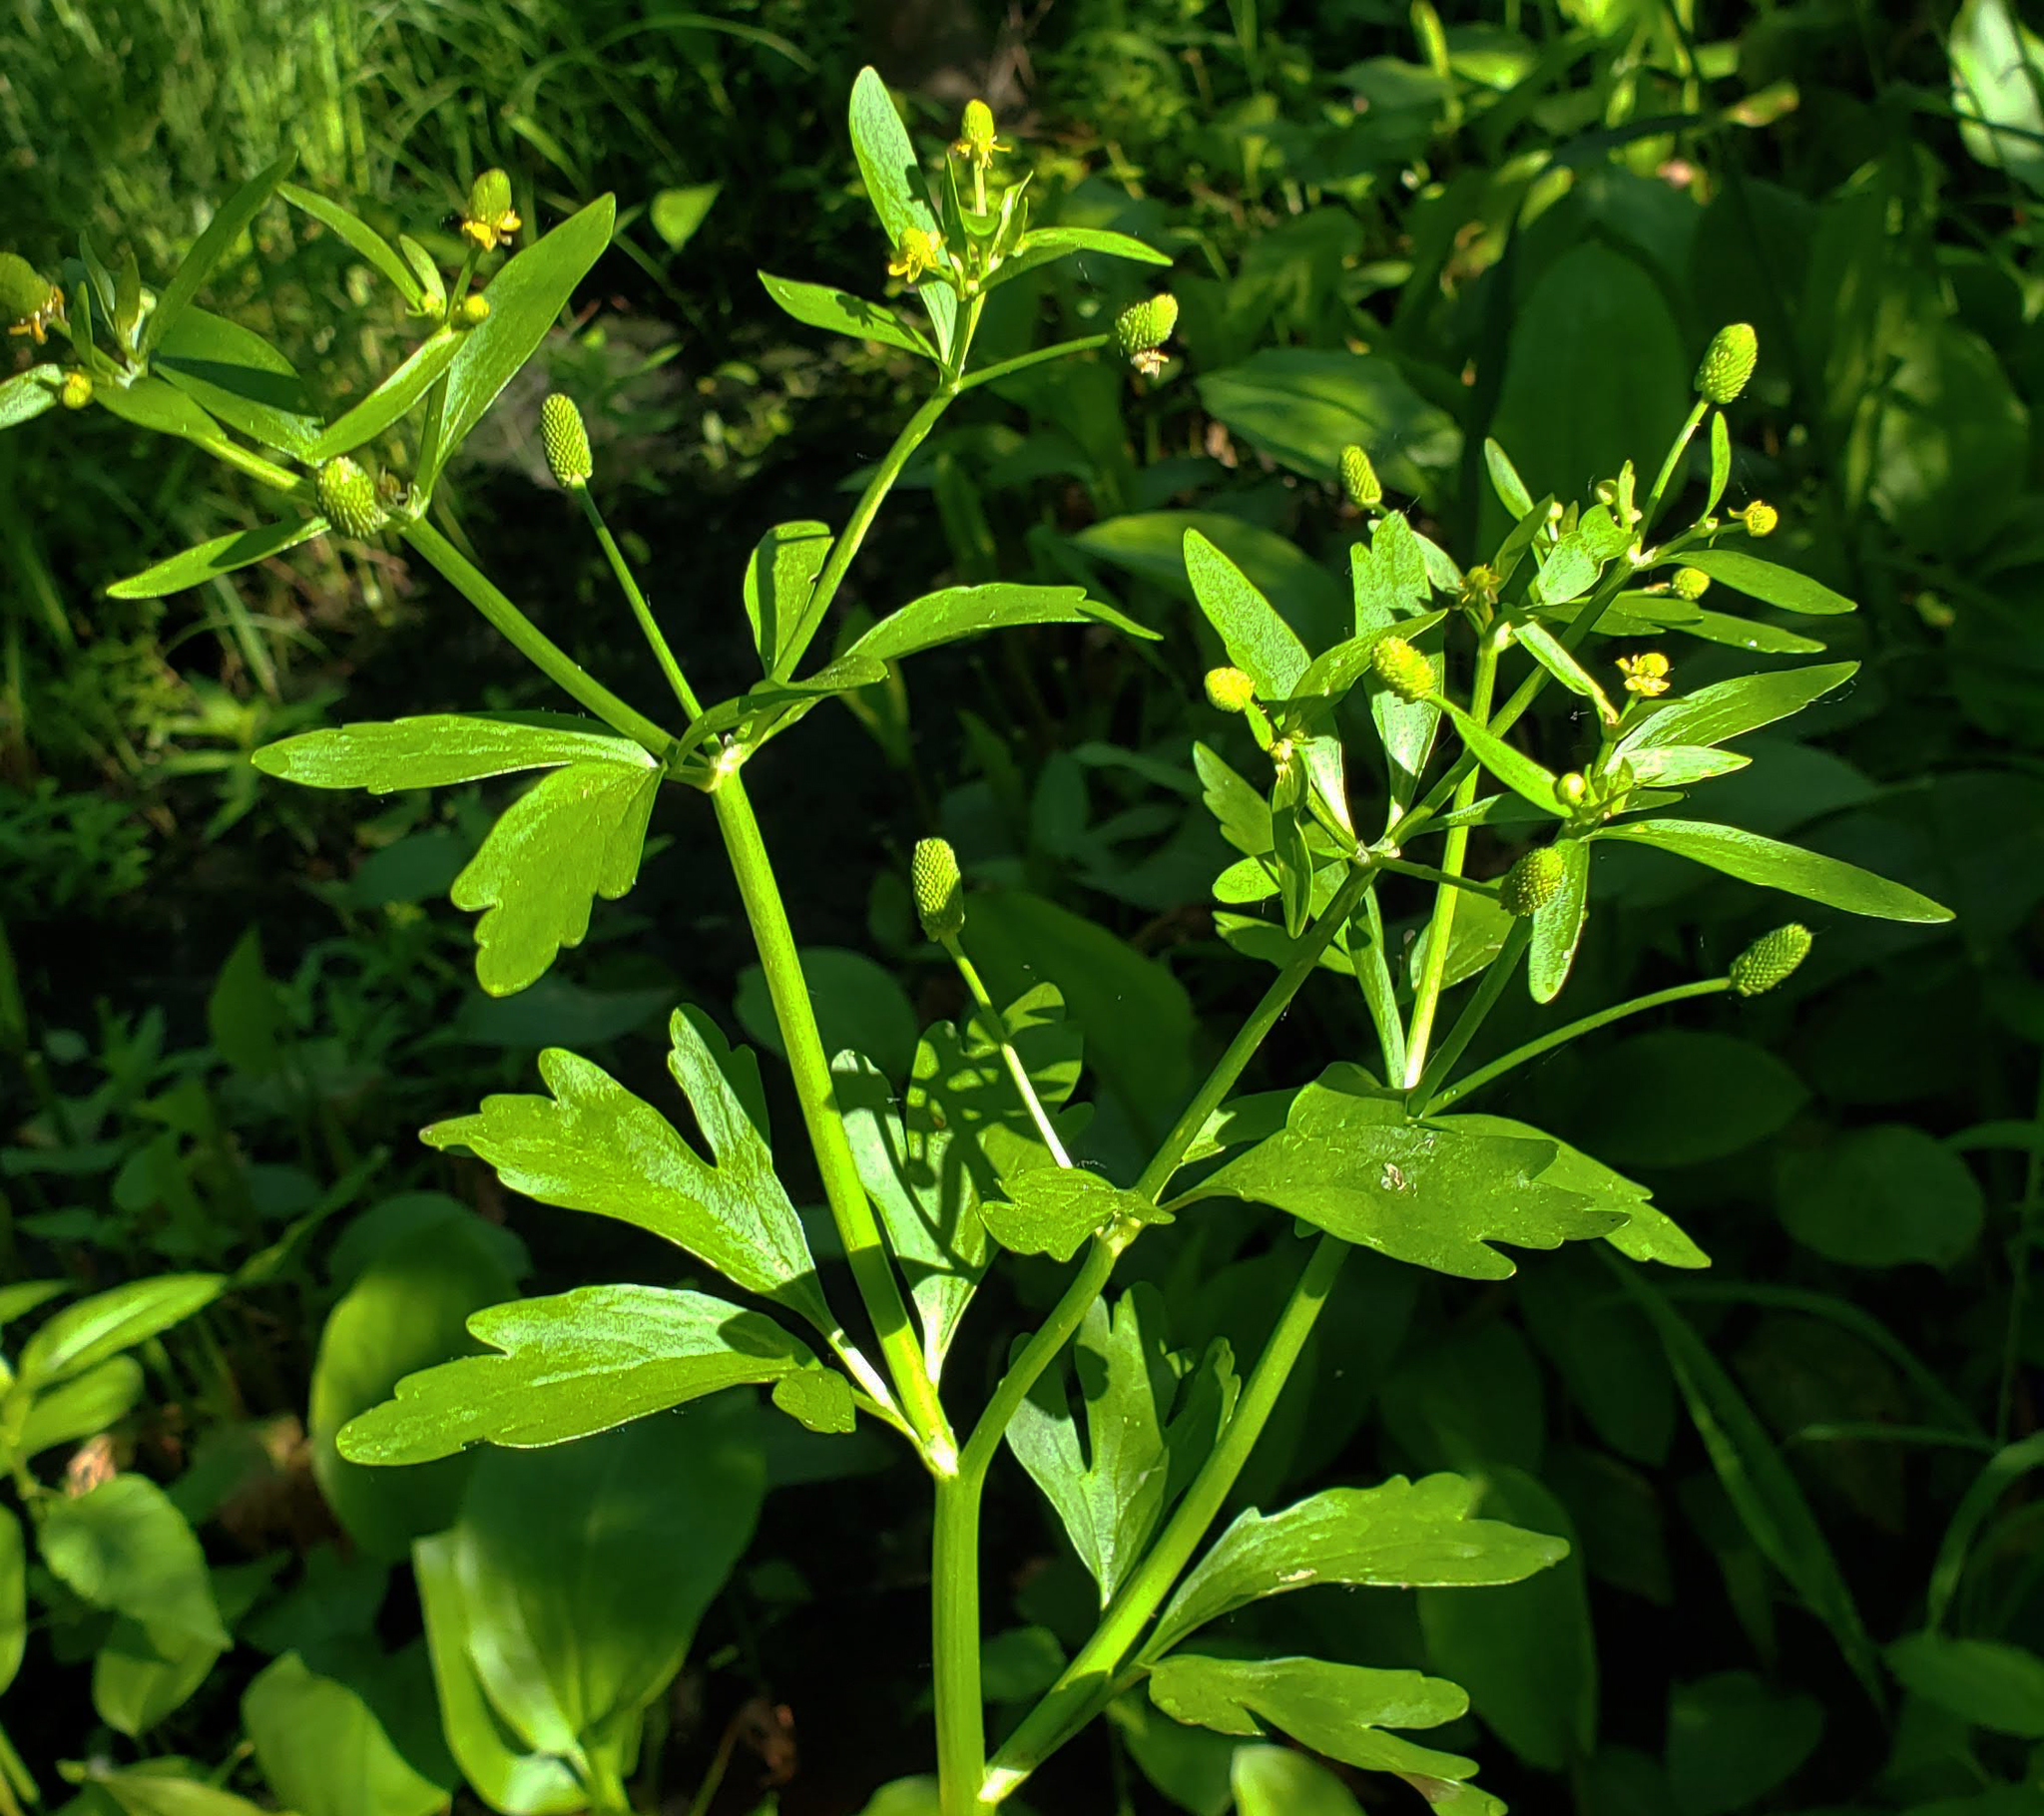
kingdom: Plantae
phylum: Tracheophyta
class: Magnoliopsida
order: Ranunculales
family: Ranunculaceae
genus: Ranunculus
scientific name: Ranunculus sceleratus
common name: Celery-leaved buttercup
